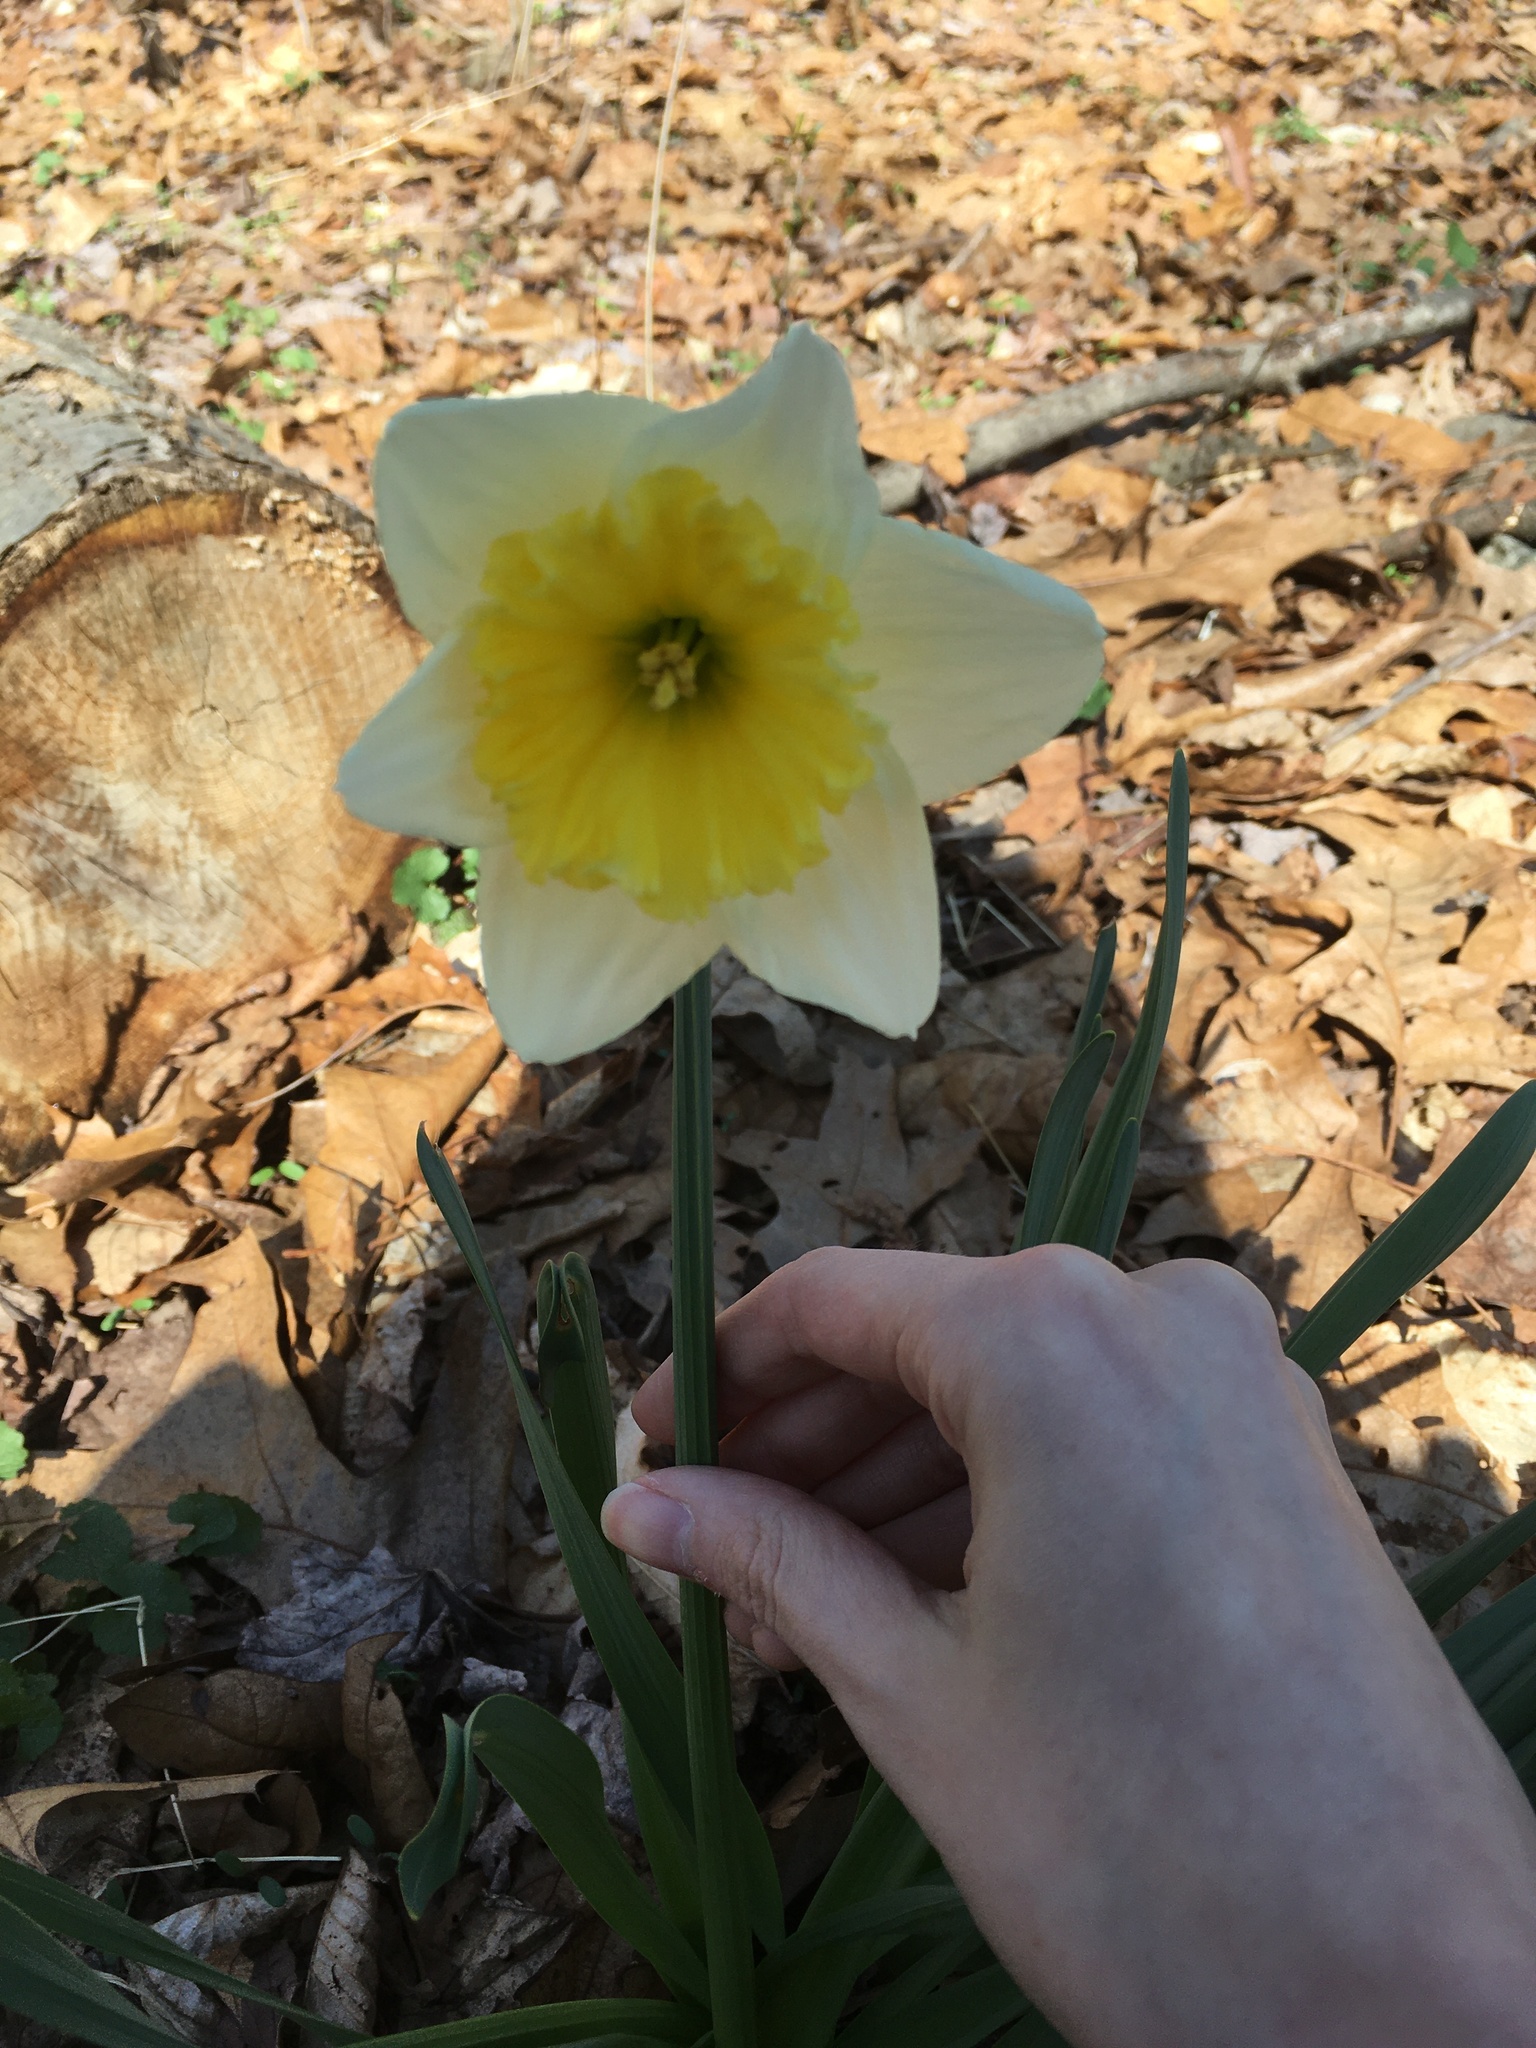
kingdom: Plantae
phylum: Tracheophyta
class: Liliopsida
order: Asparagales
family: Amaryllidaceae
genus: Narcissus
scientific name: Narcissus
